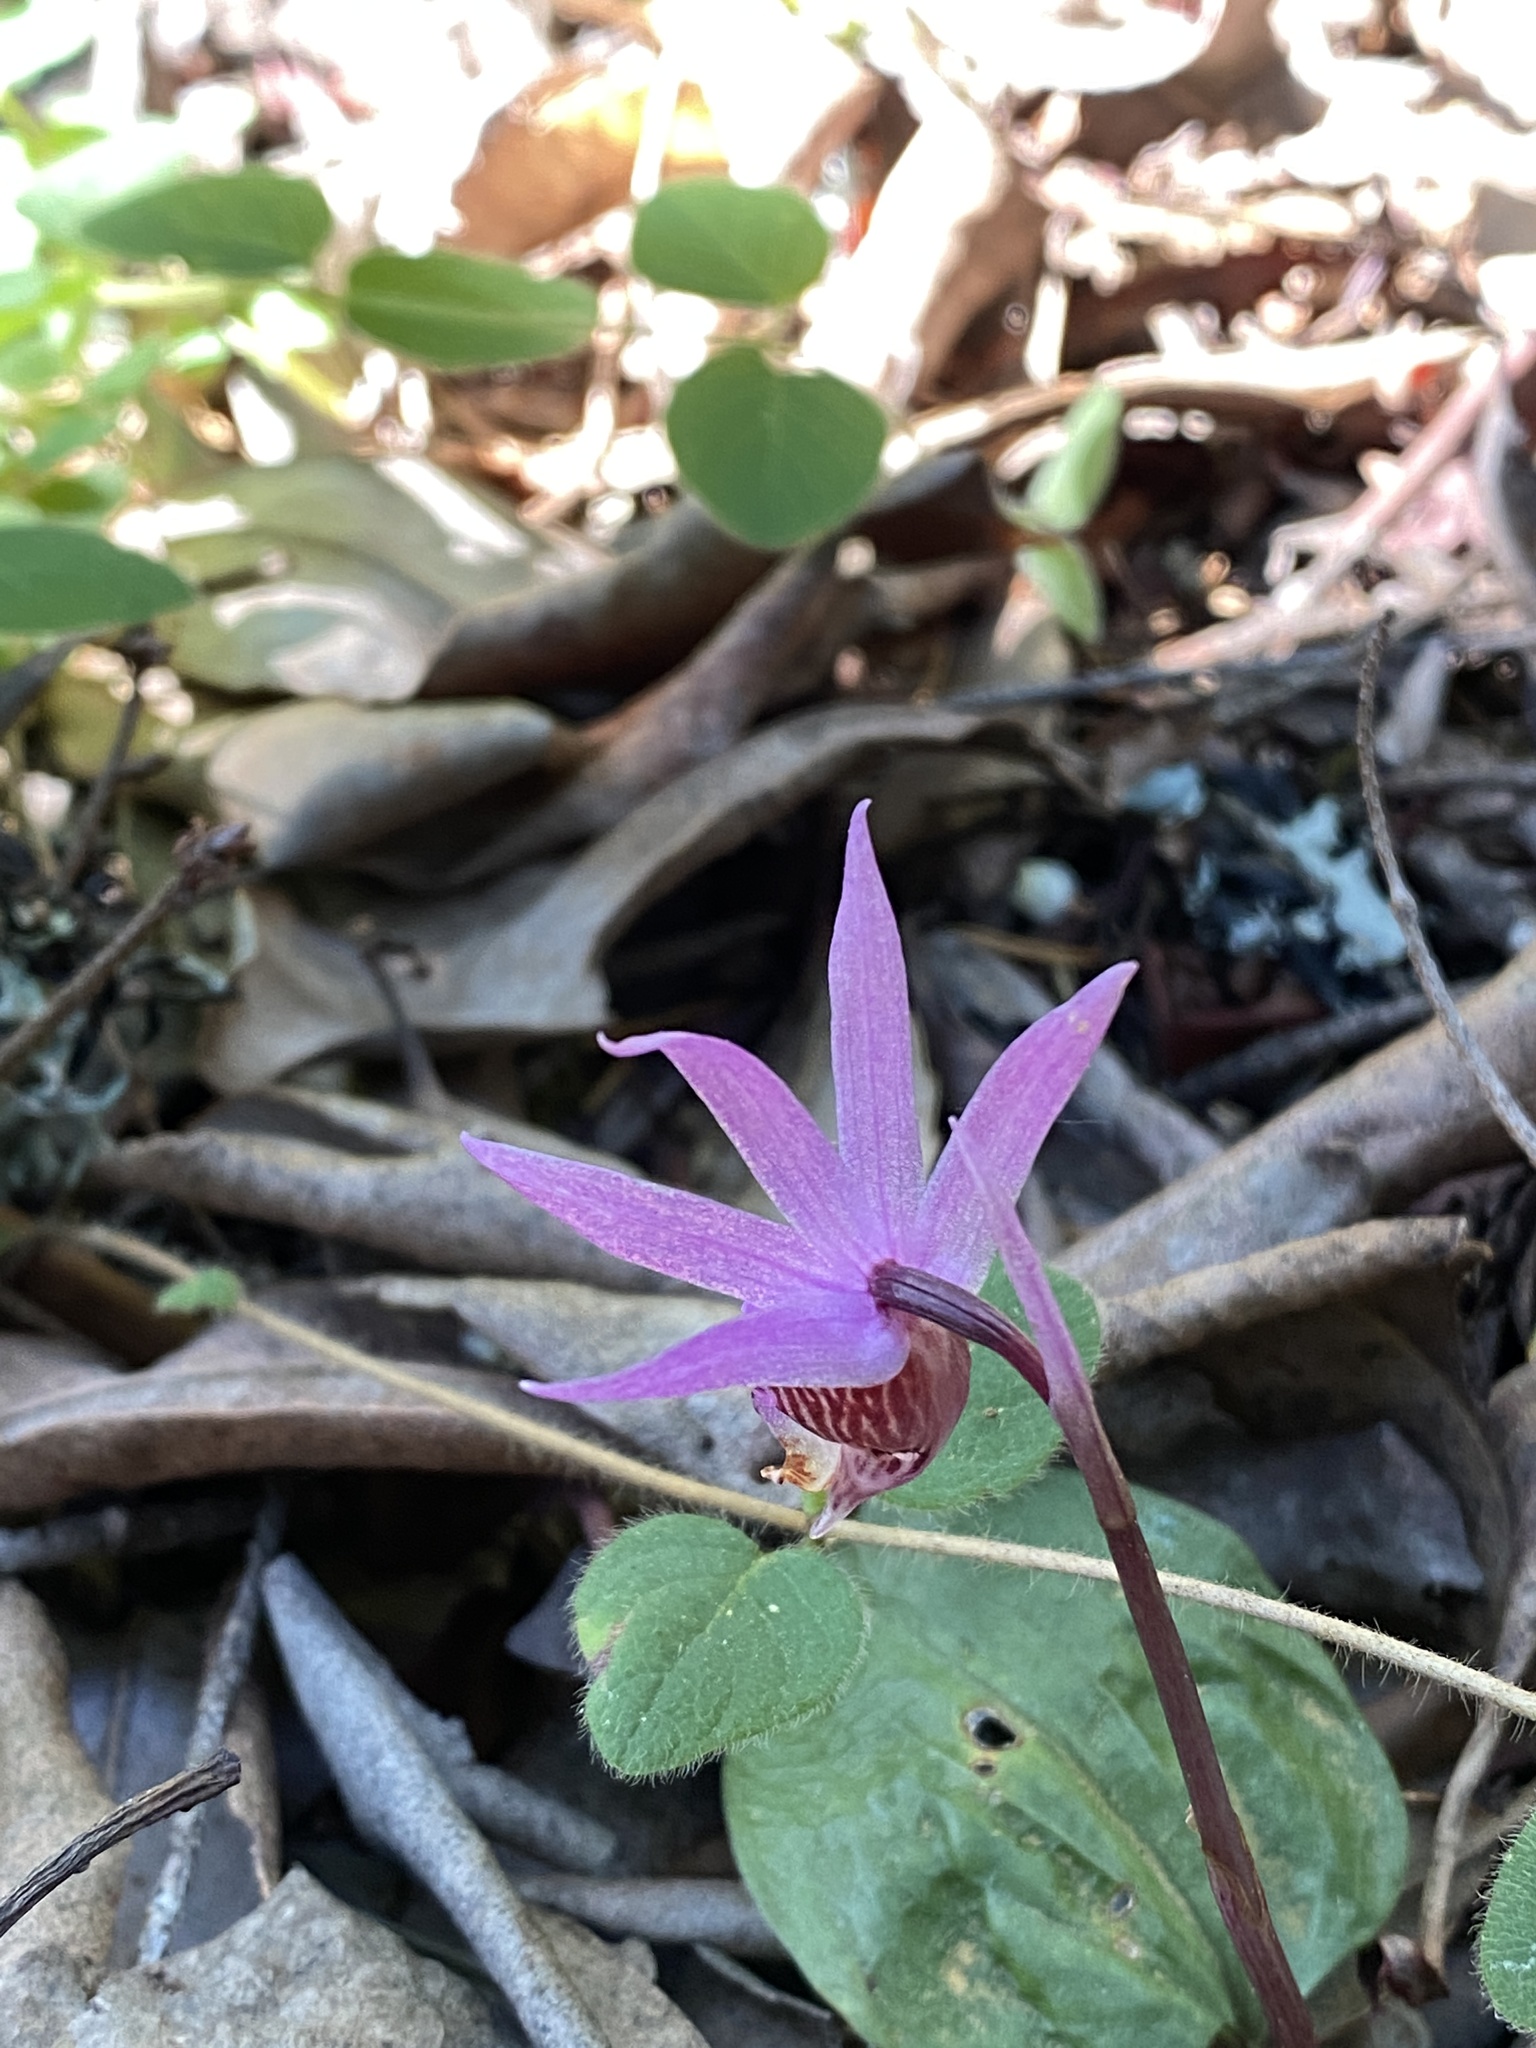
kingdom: Plantae
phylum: Tracheophyta
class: Liliopsida
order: Asparagales
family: Orchidaceae
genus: Calypso
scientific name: Calypso bulbosa
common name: Calypso
